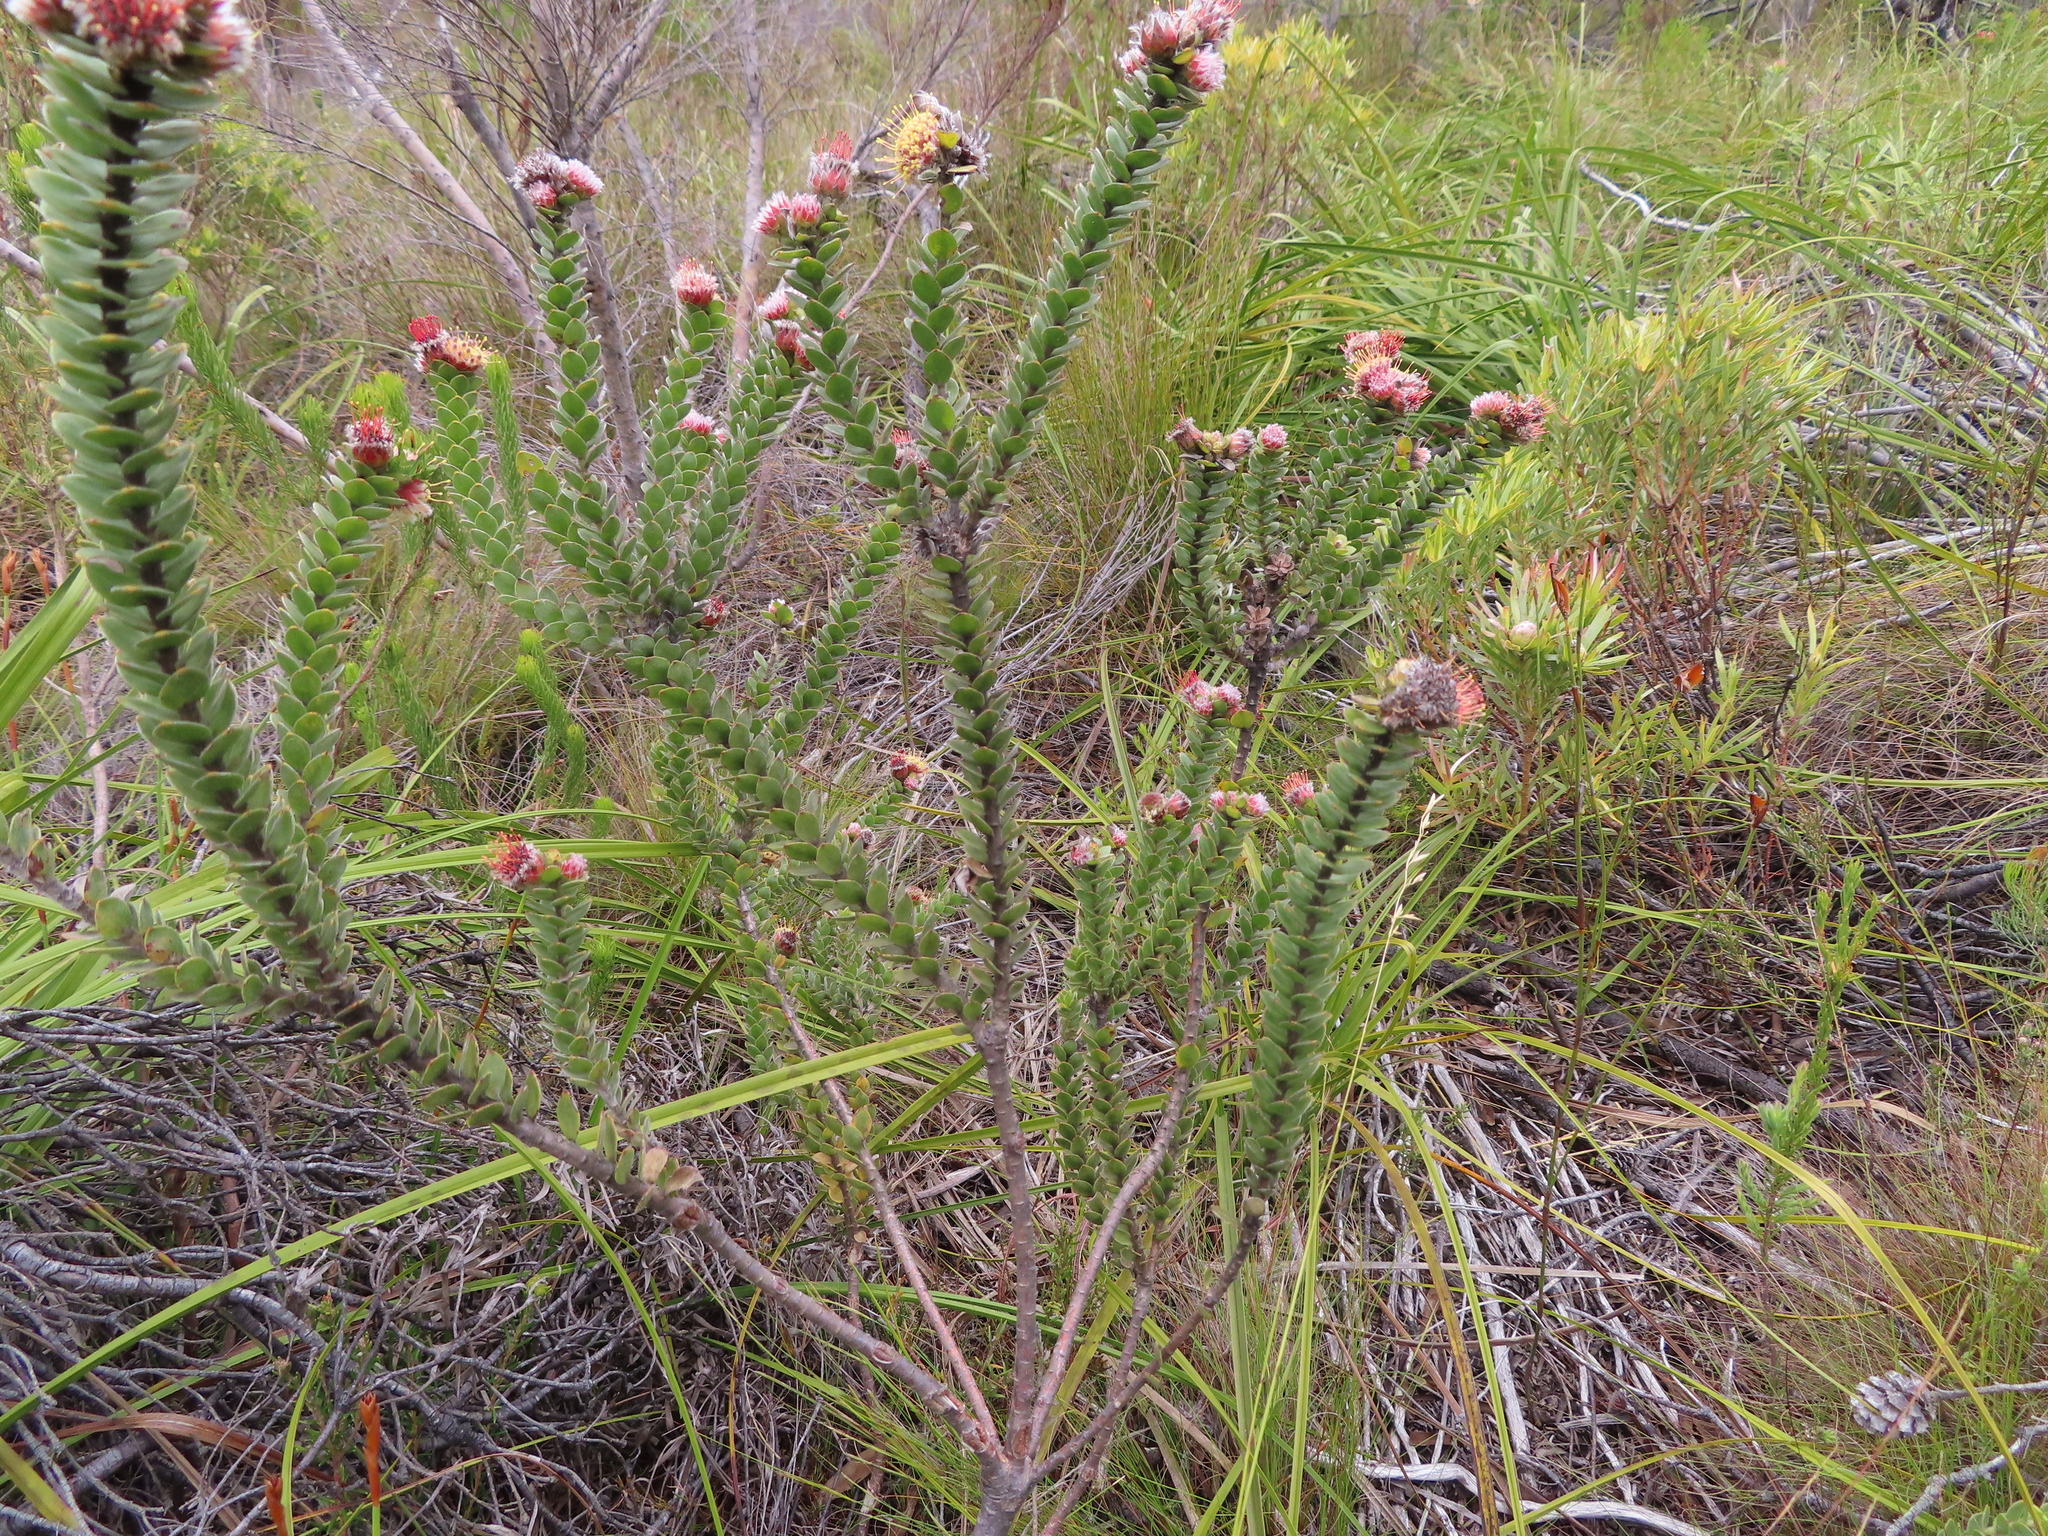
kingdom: Plantae
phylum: Tracheophyta
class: Magnoliopsida
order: Proteales
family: Proteaceae
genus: Leucospermum
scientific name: Leucospermum truncatulum
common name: Oval-leaf pincushion
